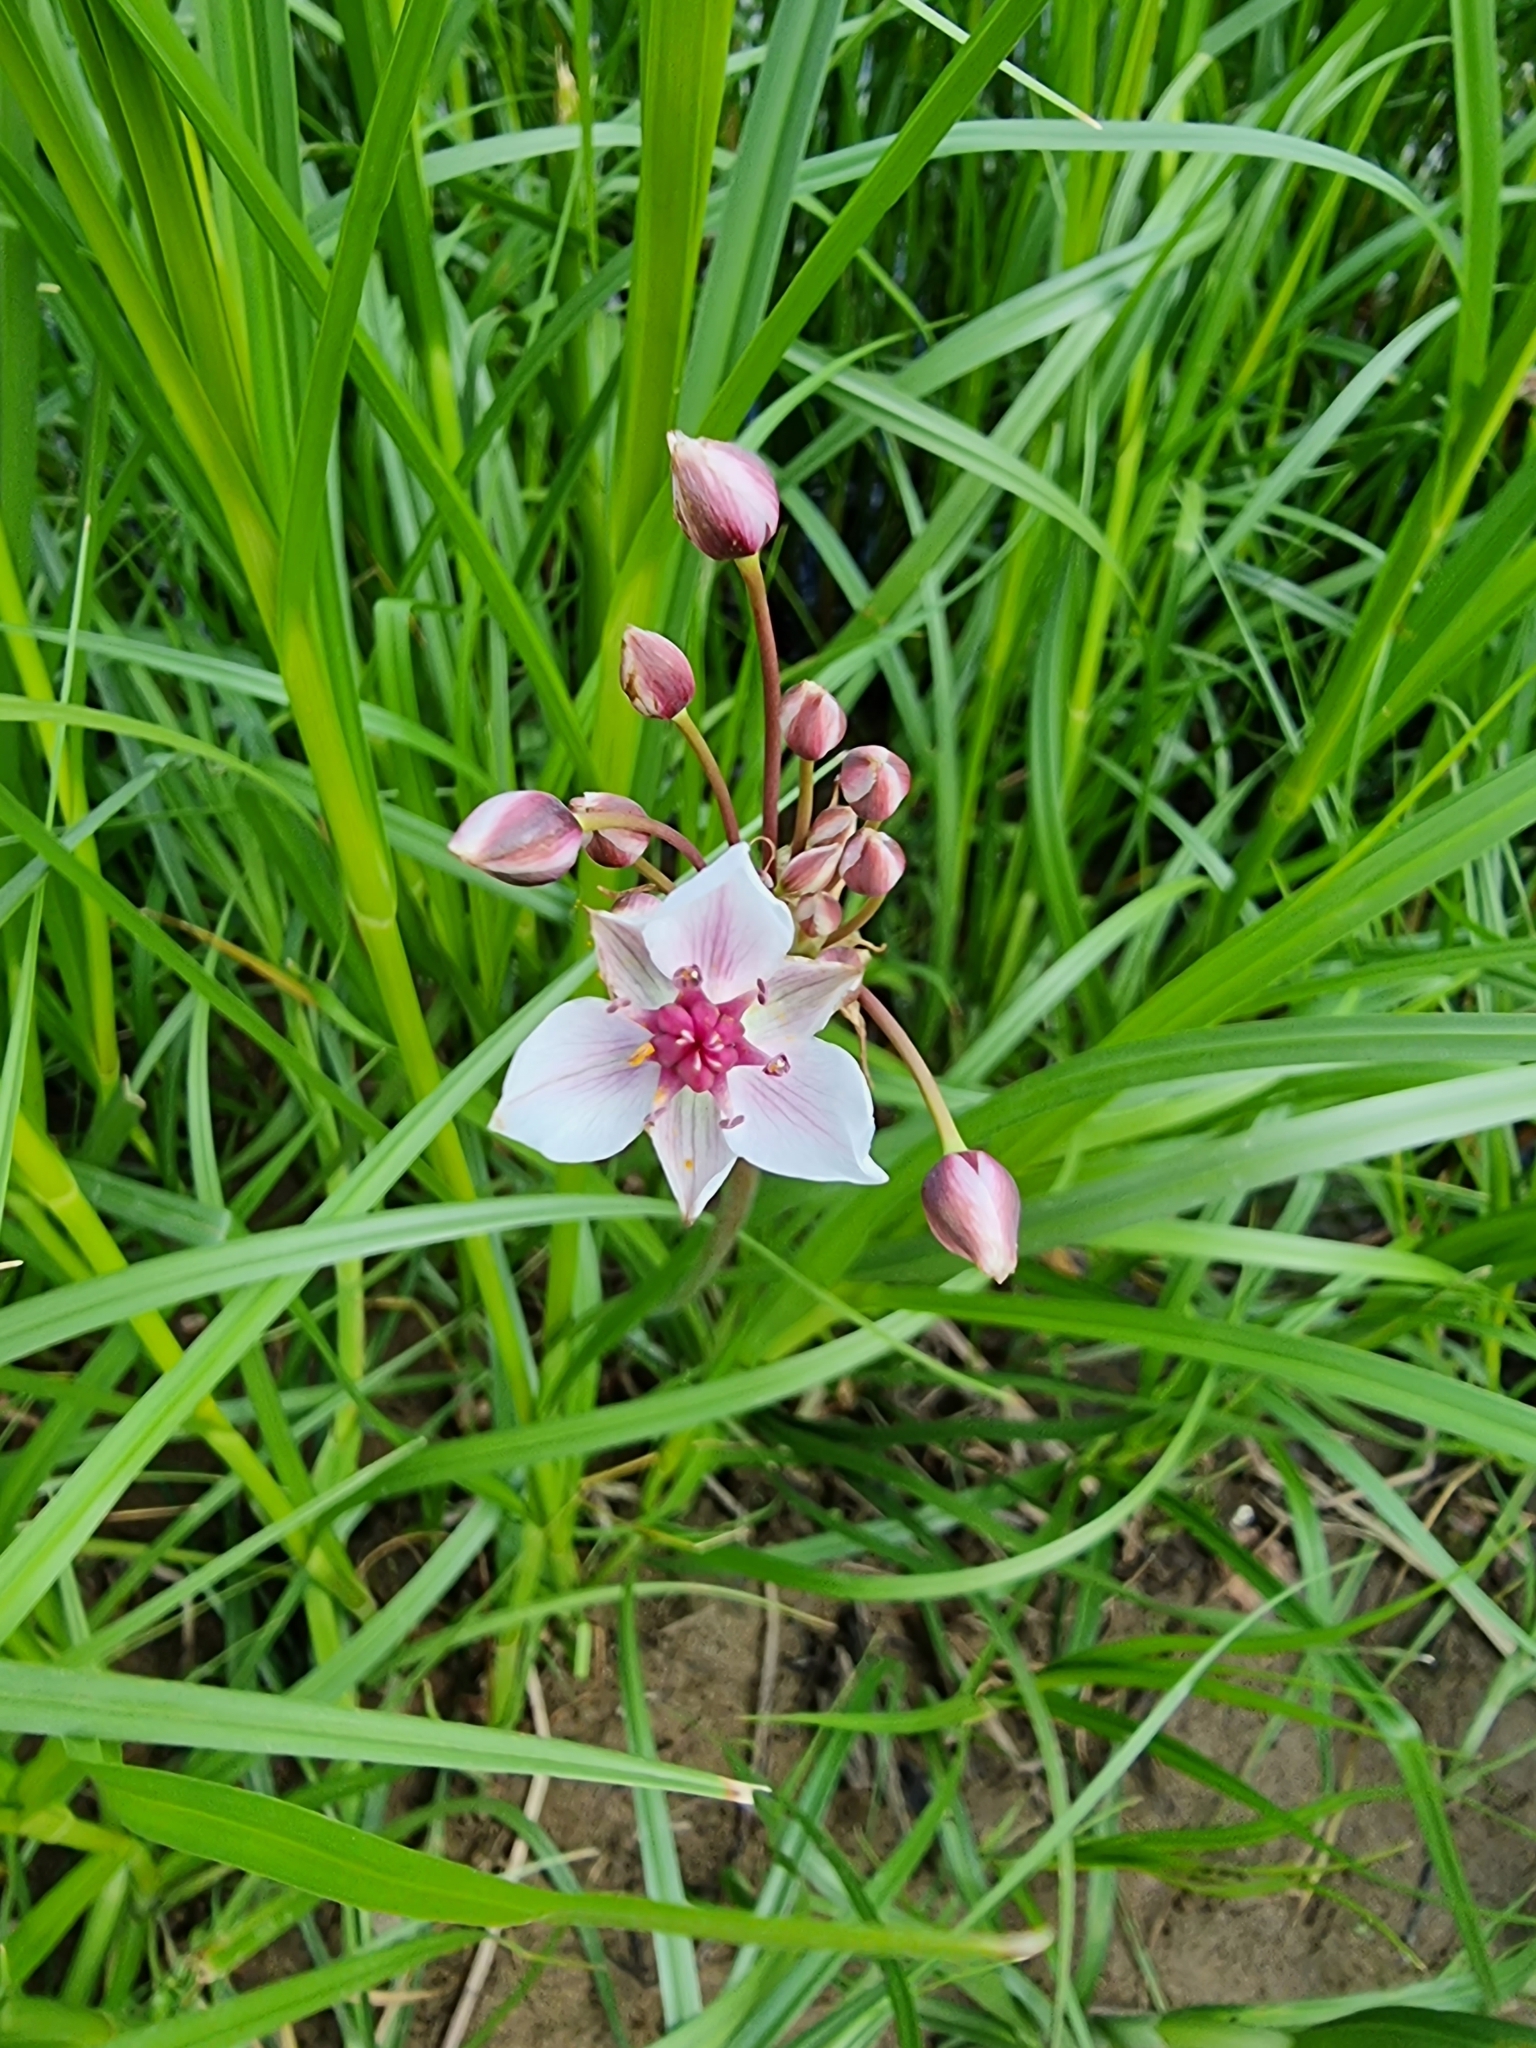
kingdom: Plantae
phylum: Tracheophyta
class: Liliopsida
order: Alismatales
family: Butomaceae
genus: Butomus
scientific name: Butomus umbellatus
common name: Flowering-rush
